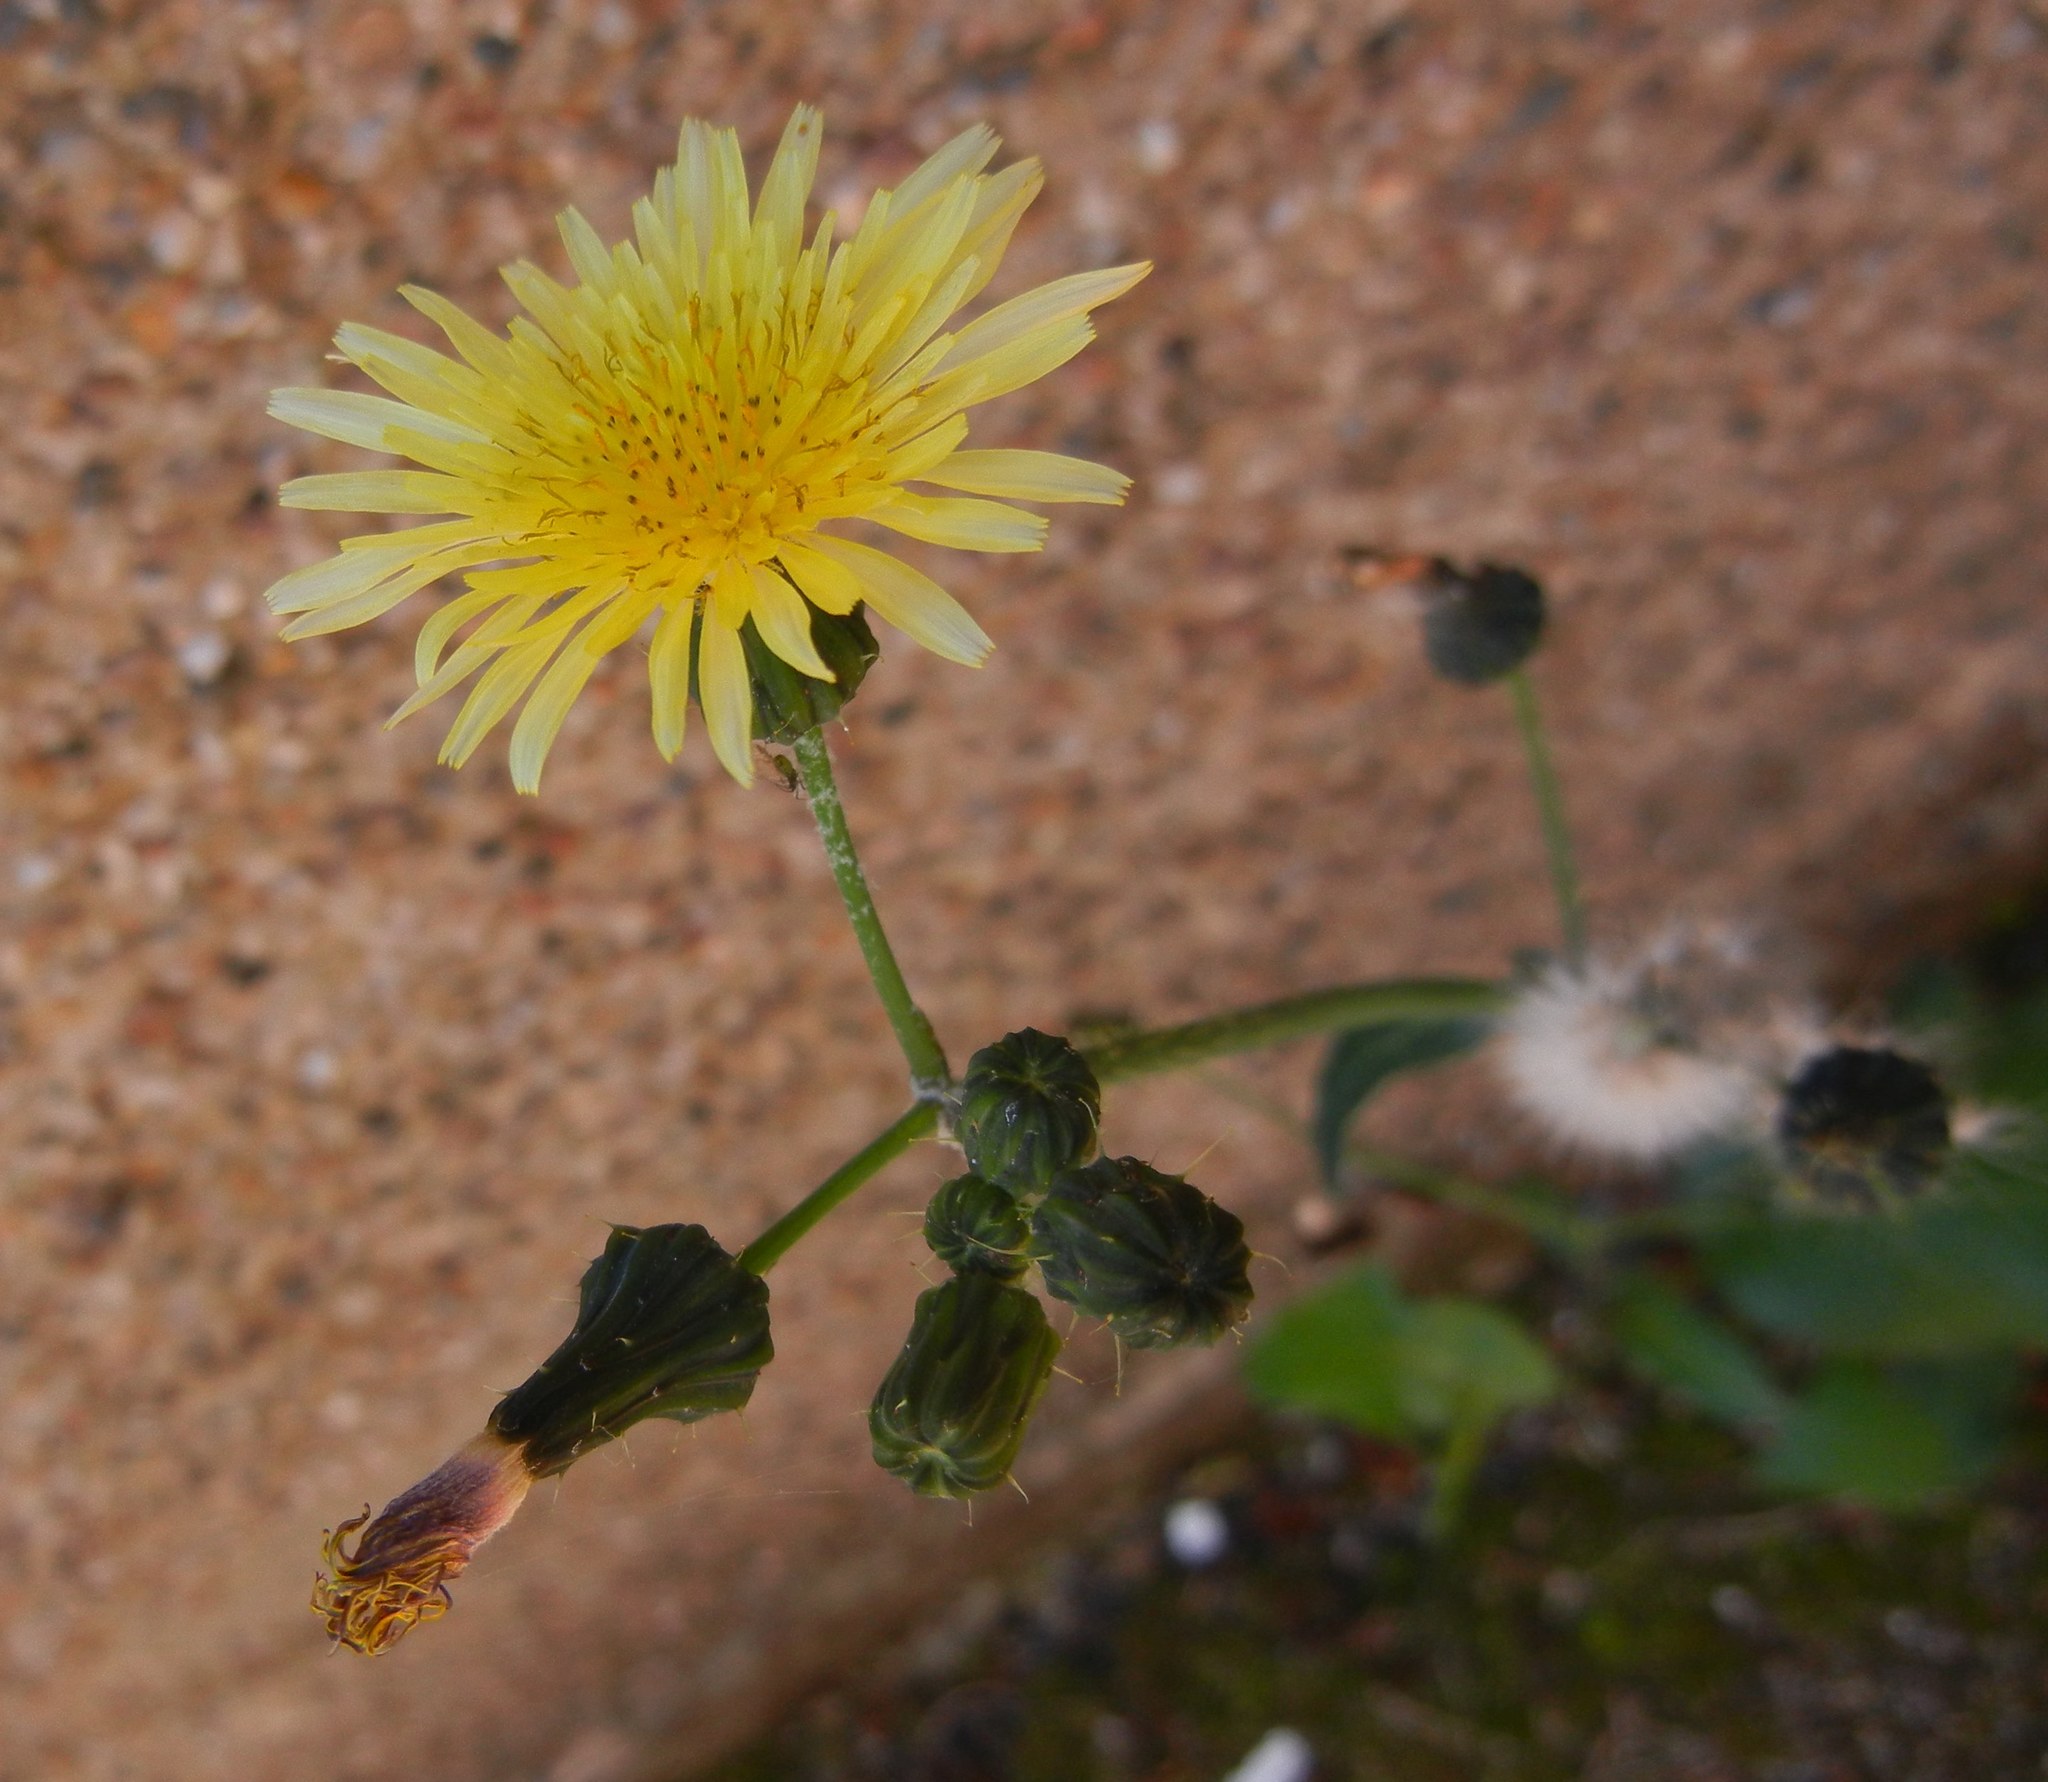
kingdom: Plantae
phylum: Tracheophyta
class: Magnoliopsida
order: Asterales
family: Asteraceae
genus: Sonchus
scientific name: Sonchus oleraceus
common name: Common sowthistle
